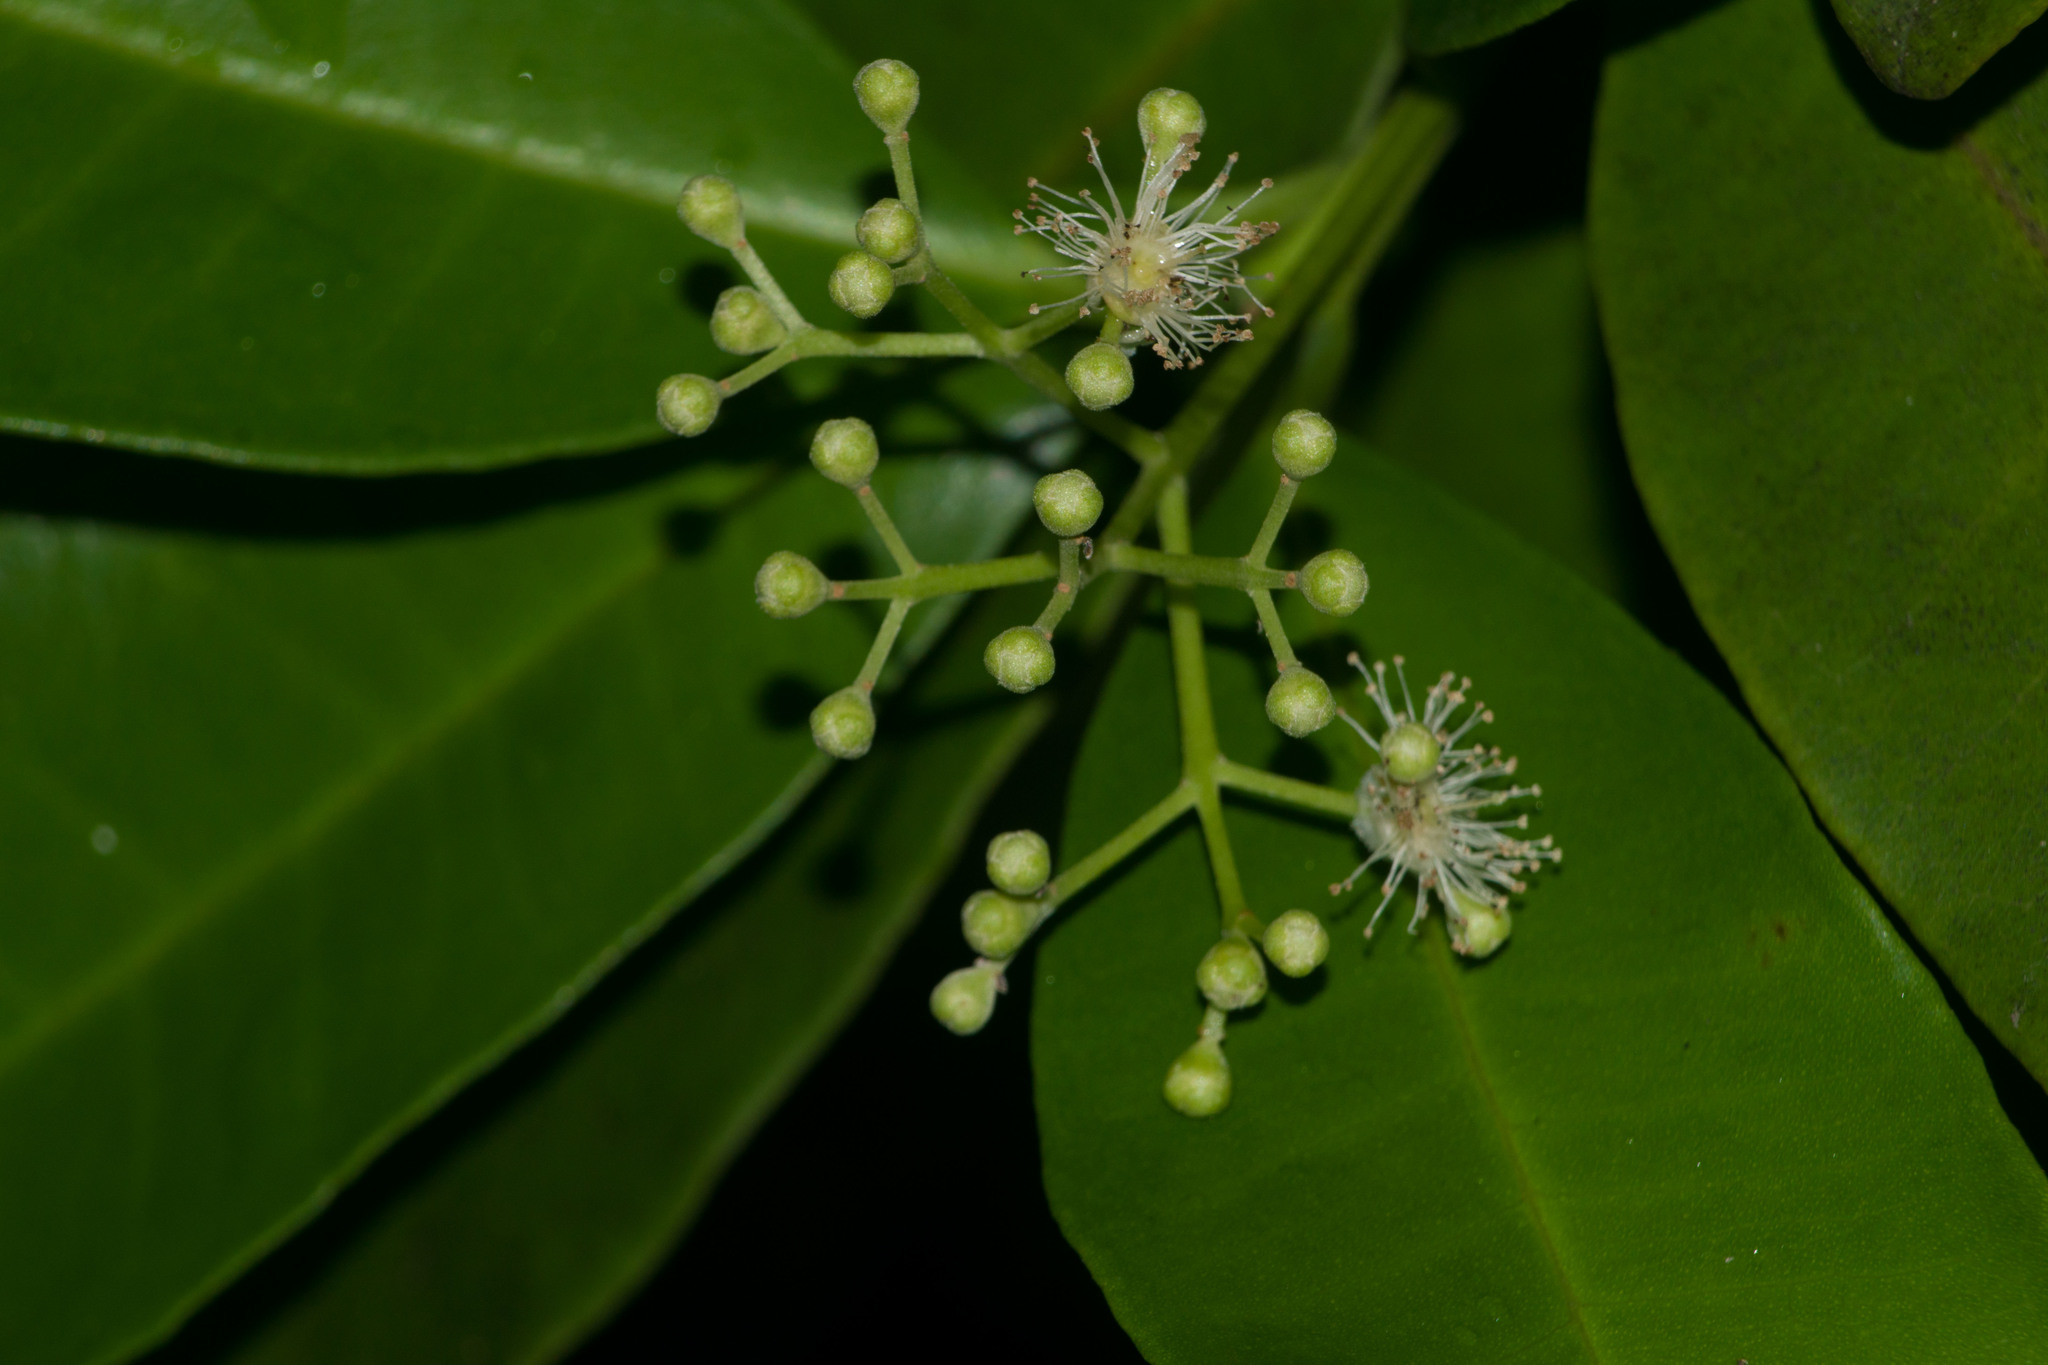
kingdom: Plantae
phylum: Tracheophyta
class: Magnoliopsida
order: Myrtales
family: Myrtaceae
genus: Pimenta
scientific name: Pimenta dioica
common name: Allspice
